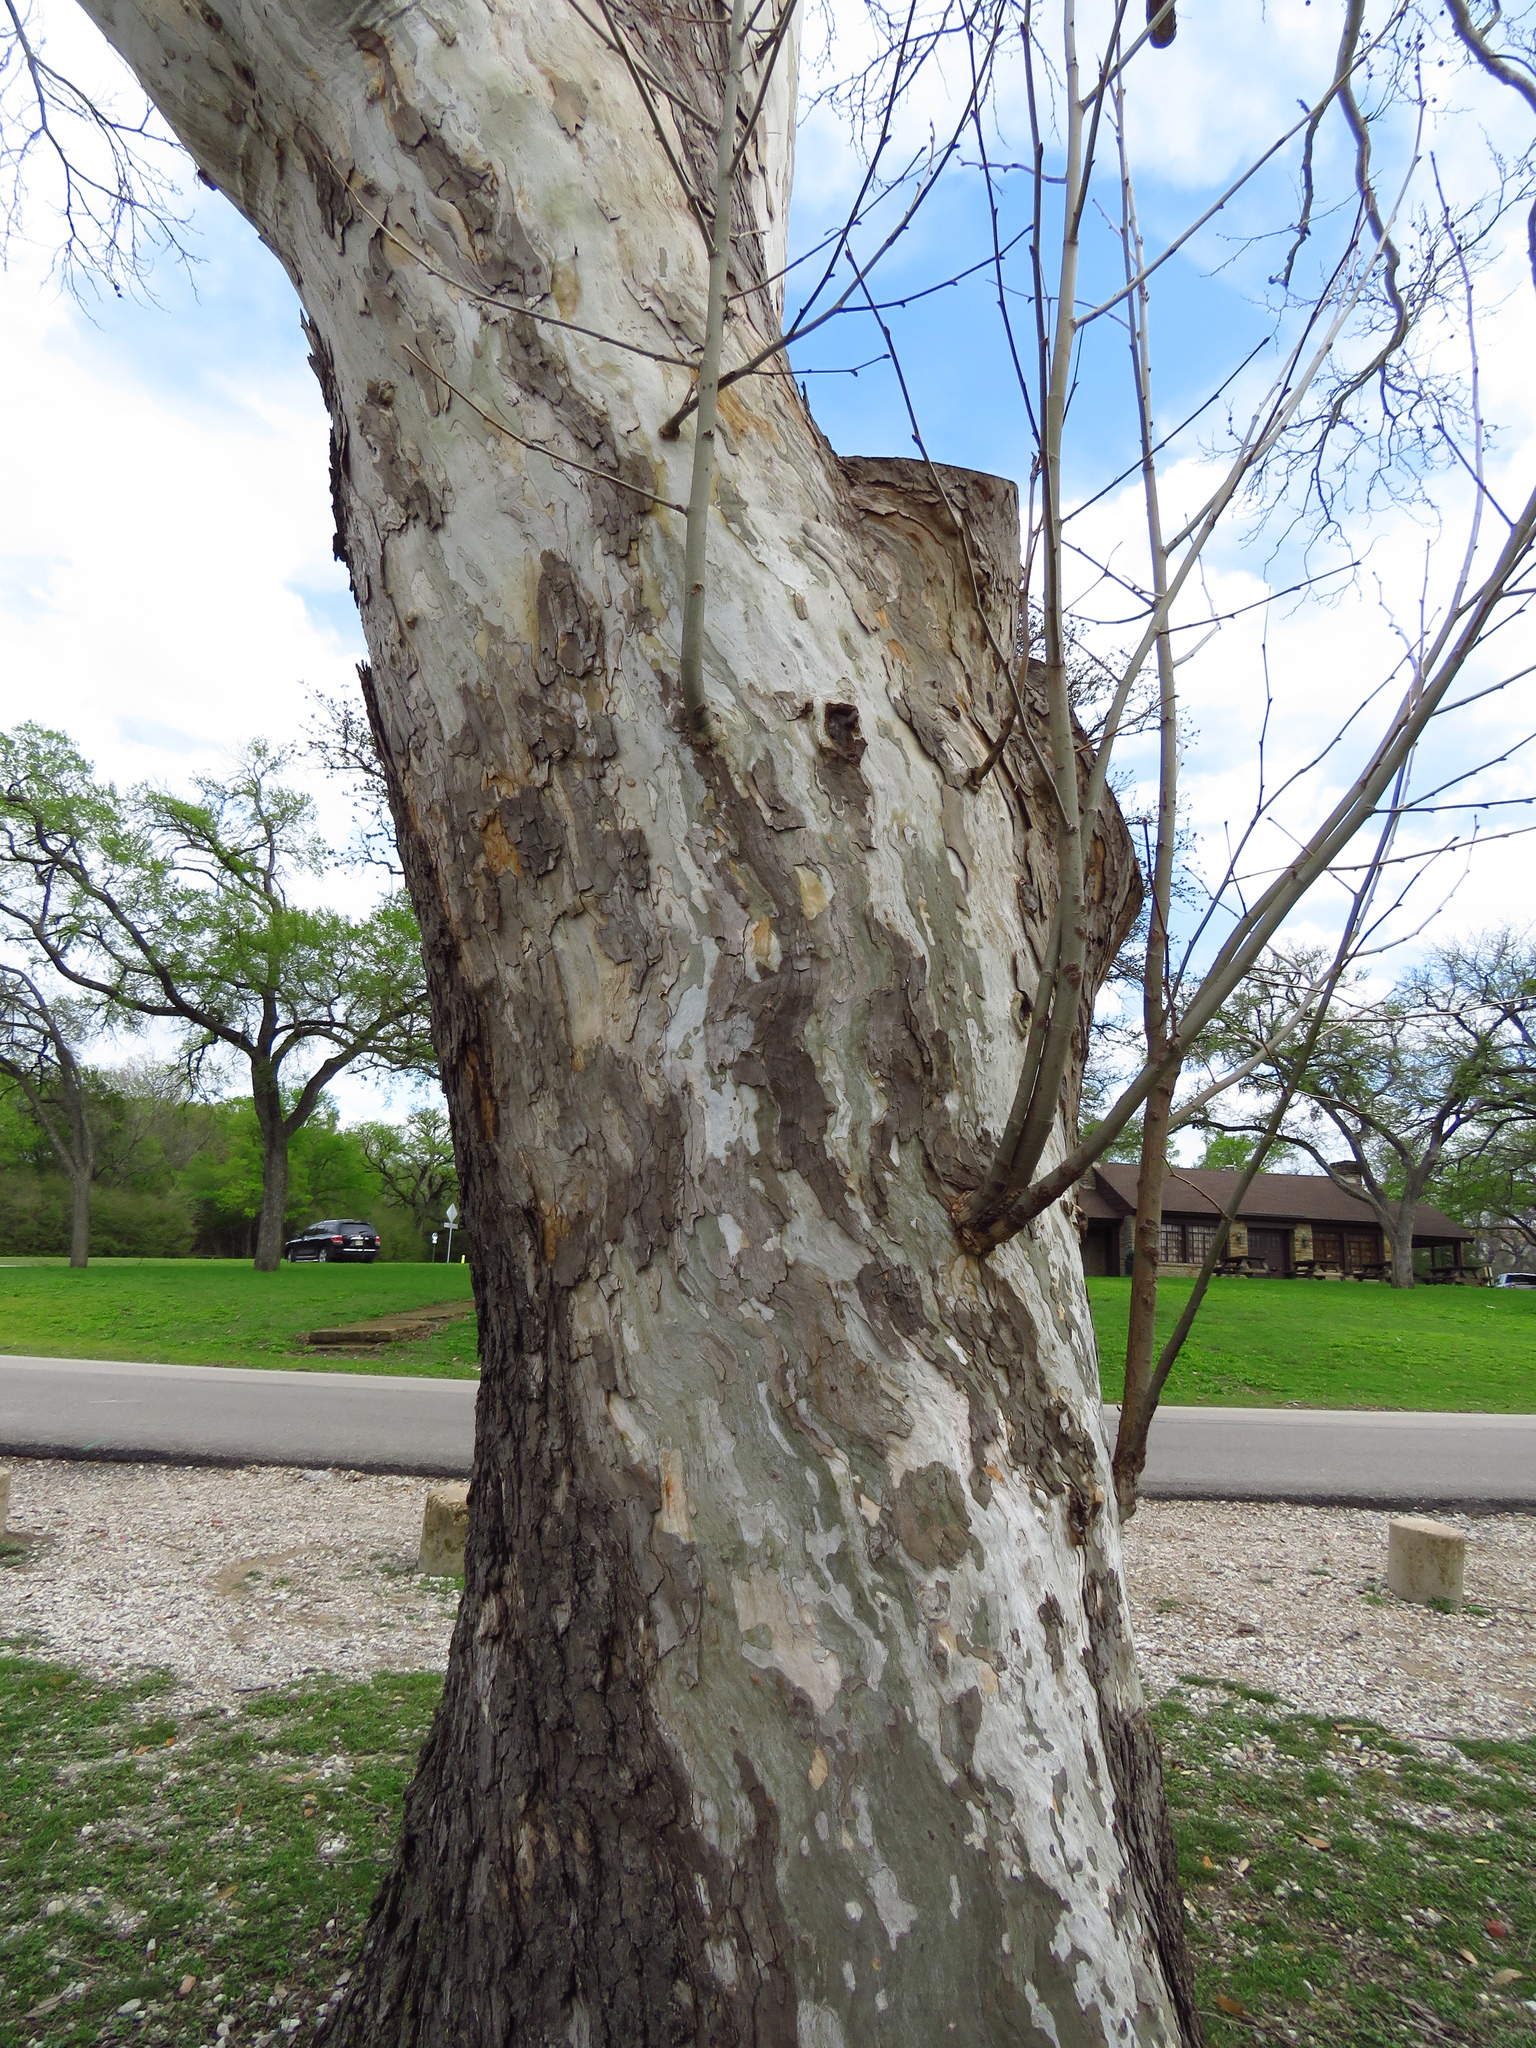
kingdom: Plantae
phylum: Tracheophyta
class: Magnoliopsida
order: Proteales
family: Platanaceae
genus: Platanus
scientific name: Platanus occidentalis
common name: American sycamore
